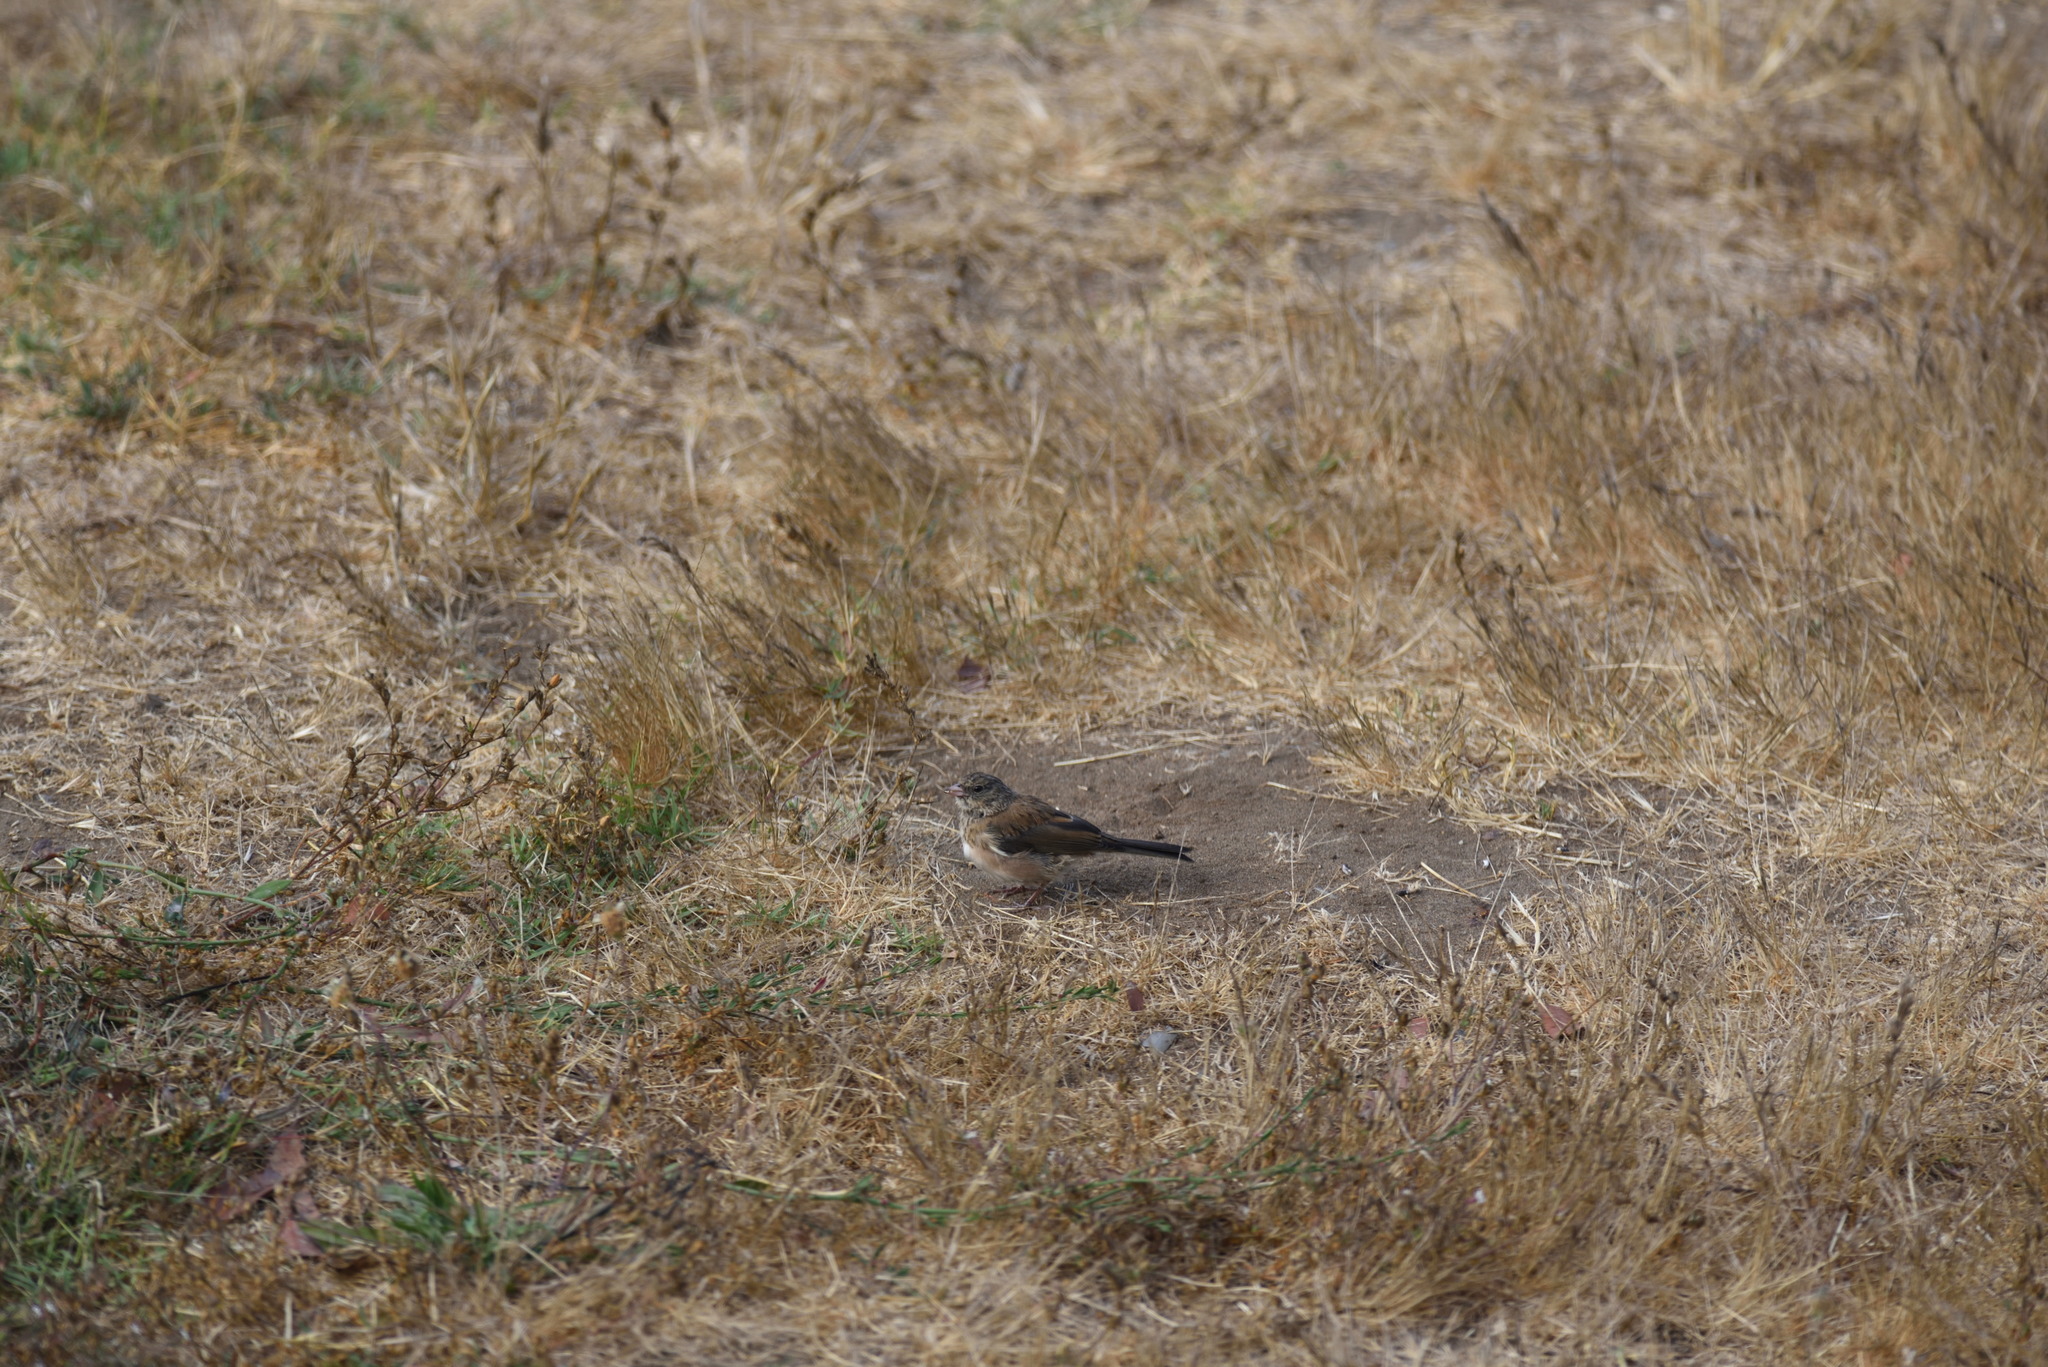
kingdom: Animalia
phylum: Chordata
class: Aves
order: Passeriformes
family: Passerellidae
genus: Junco
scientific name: Junco hyemalis
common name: Dark-eyed junco
